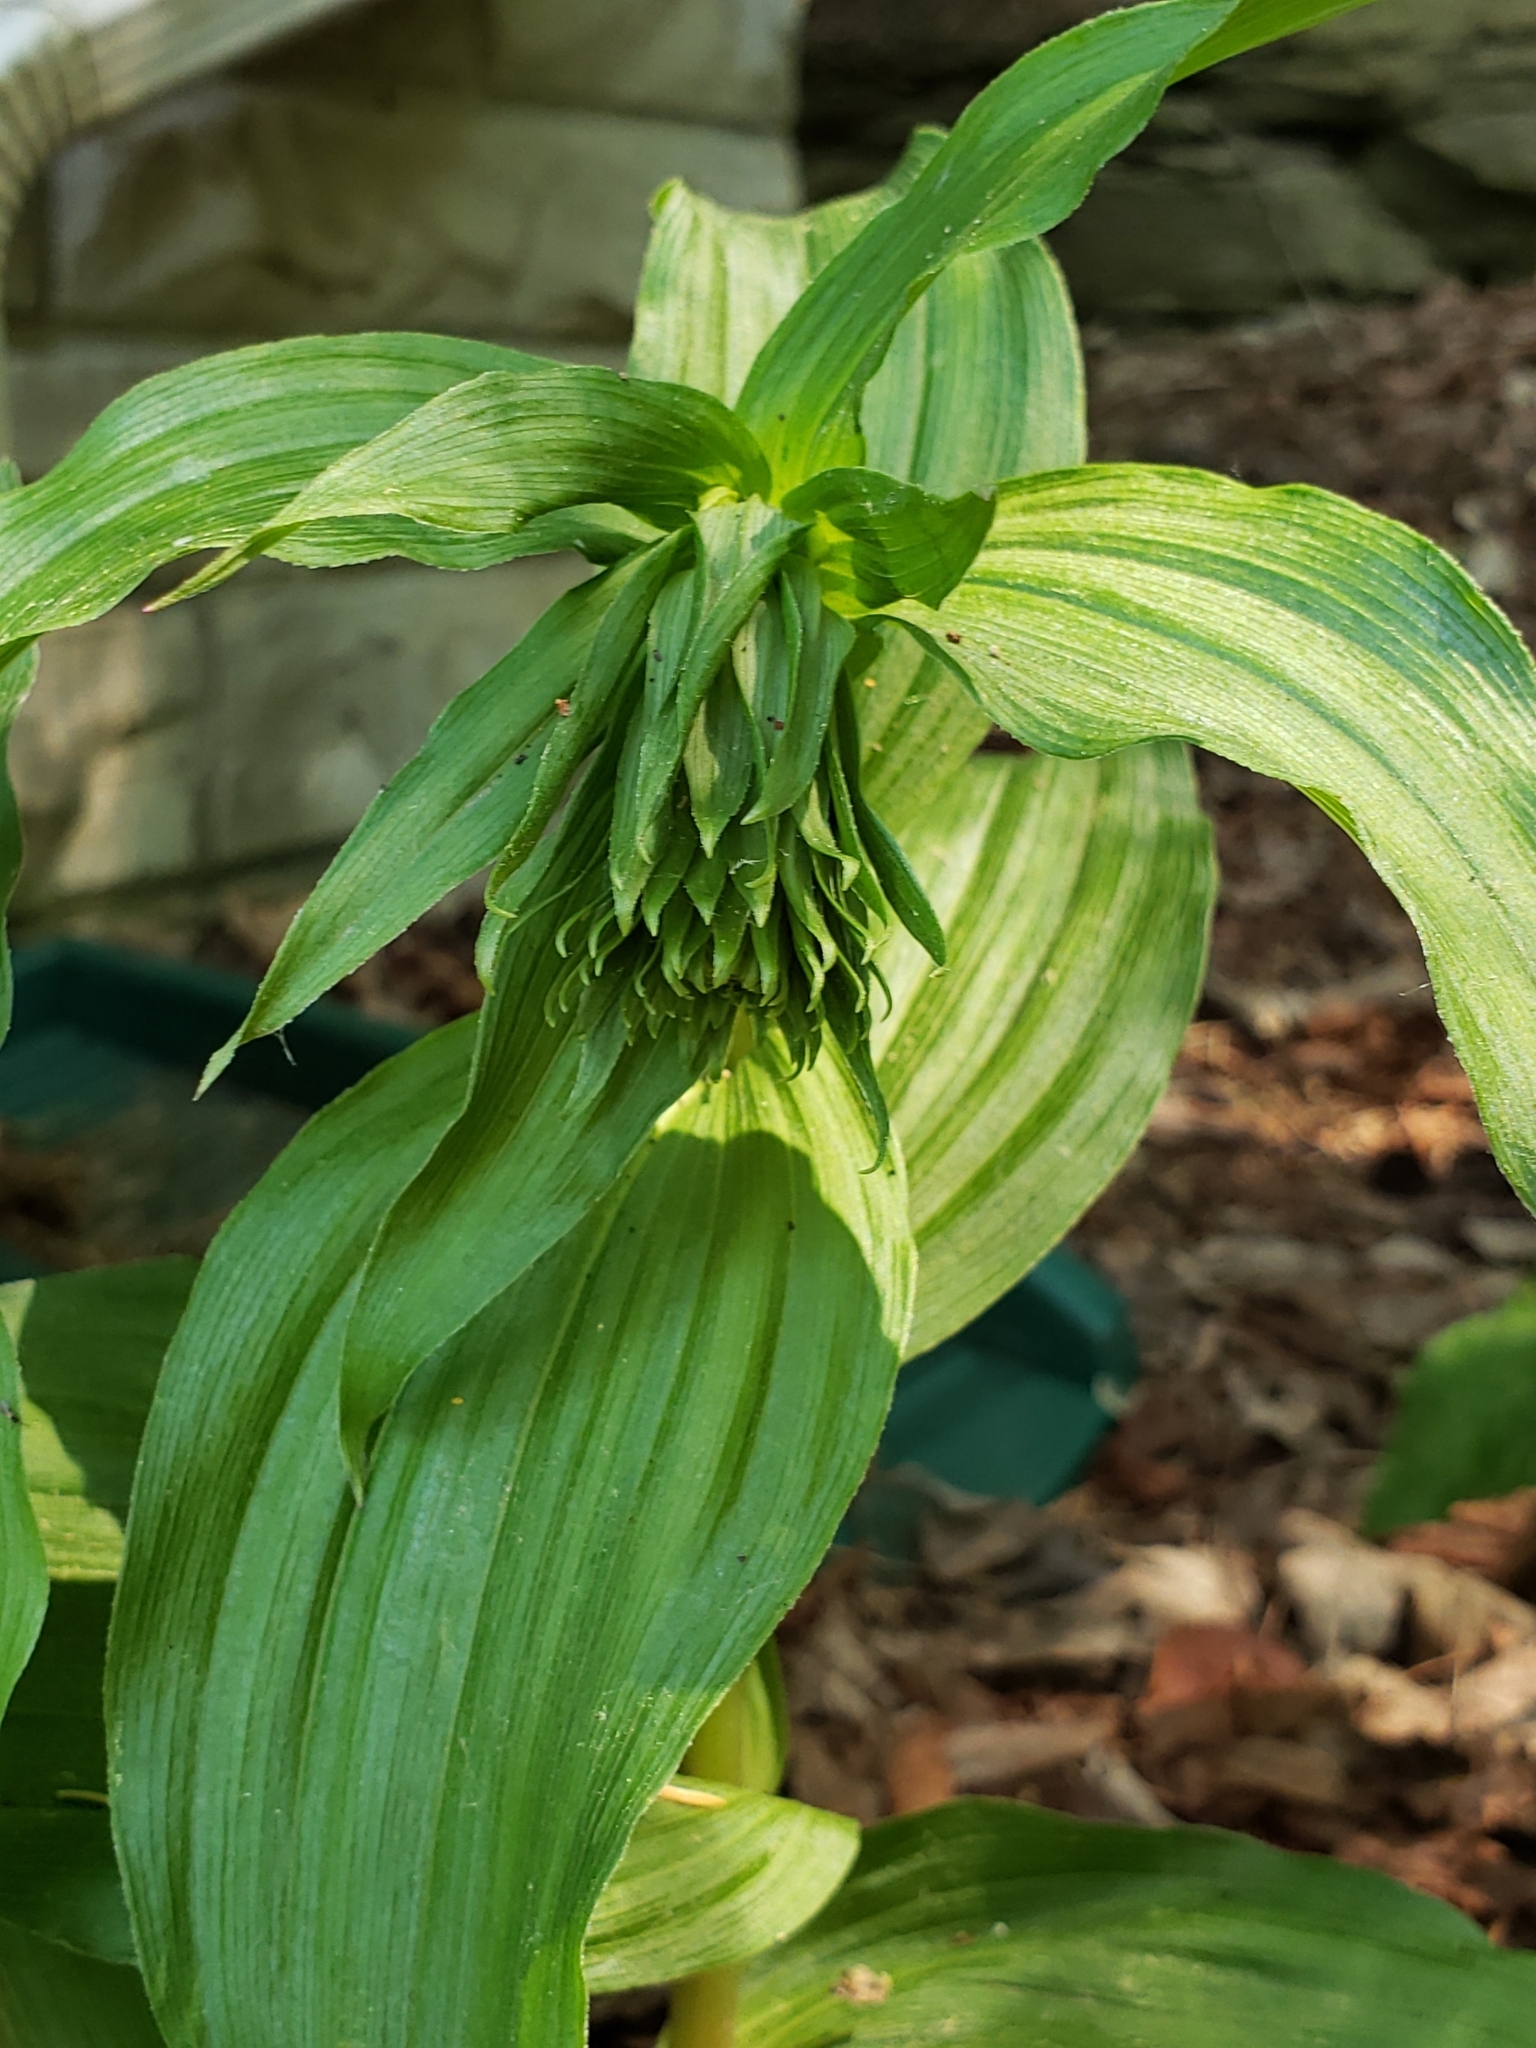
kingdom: Plantae
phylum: Tracheophyta
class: Liliopsida
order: Asparagales
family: Orchidaceae
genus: Epipactis
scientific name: Epipactis helleborine
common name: Broad-leaved helleborine
